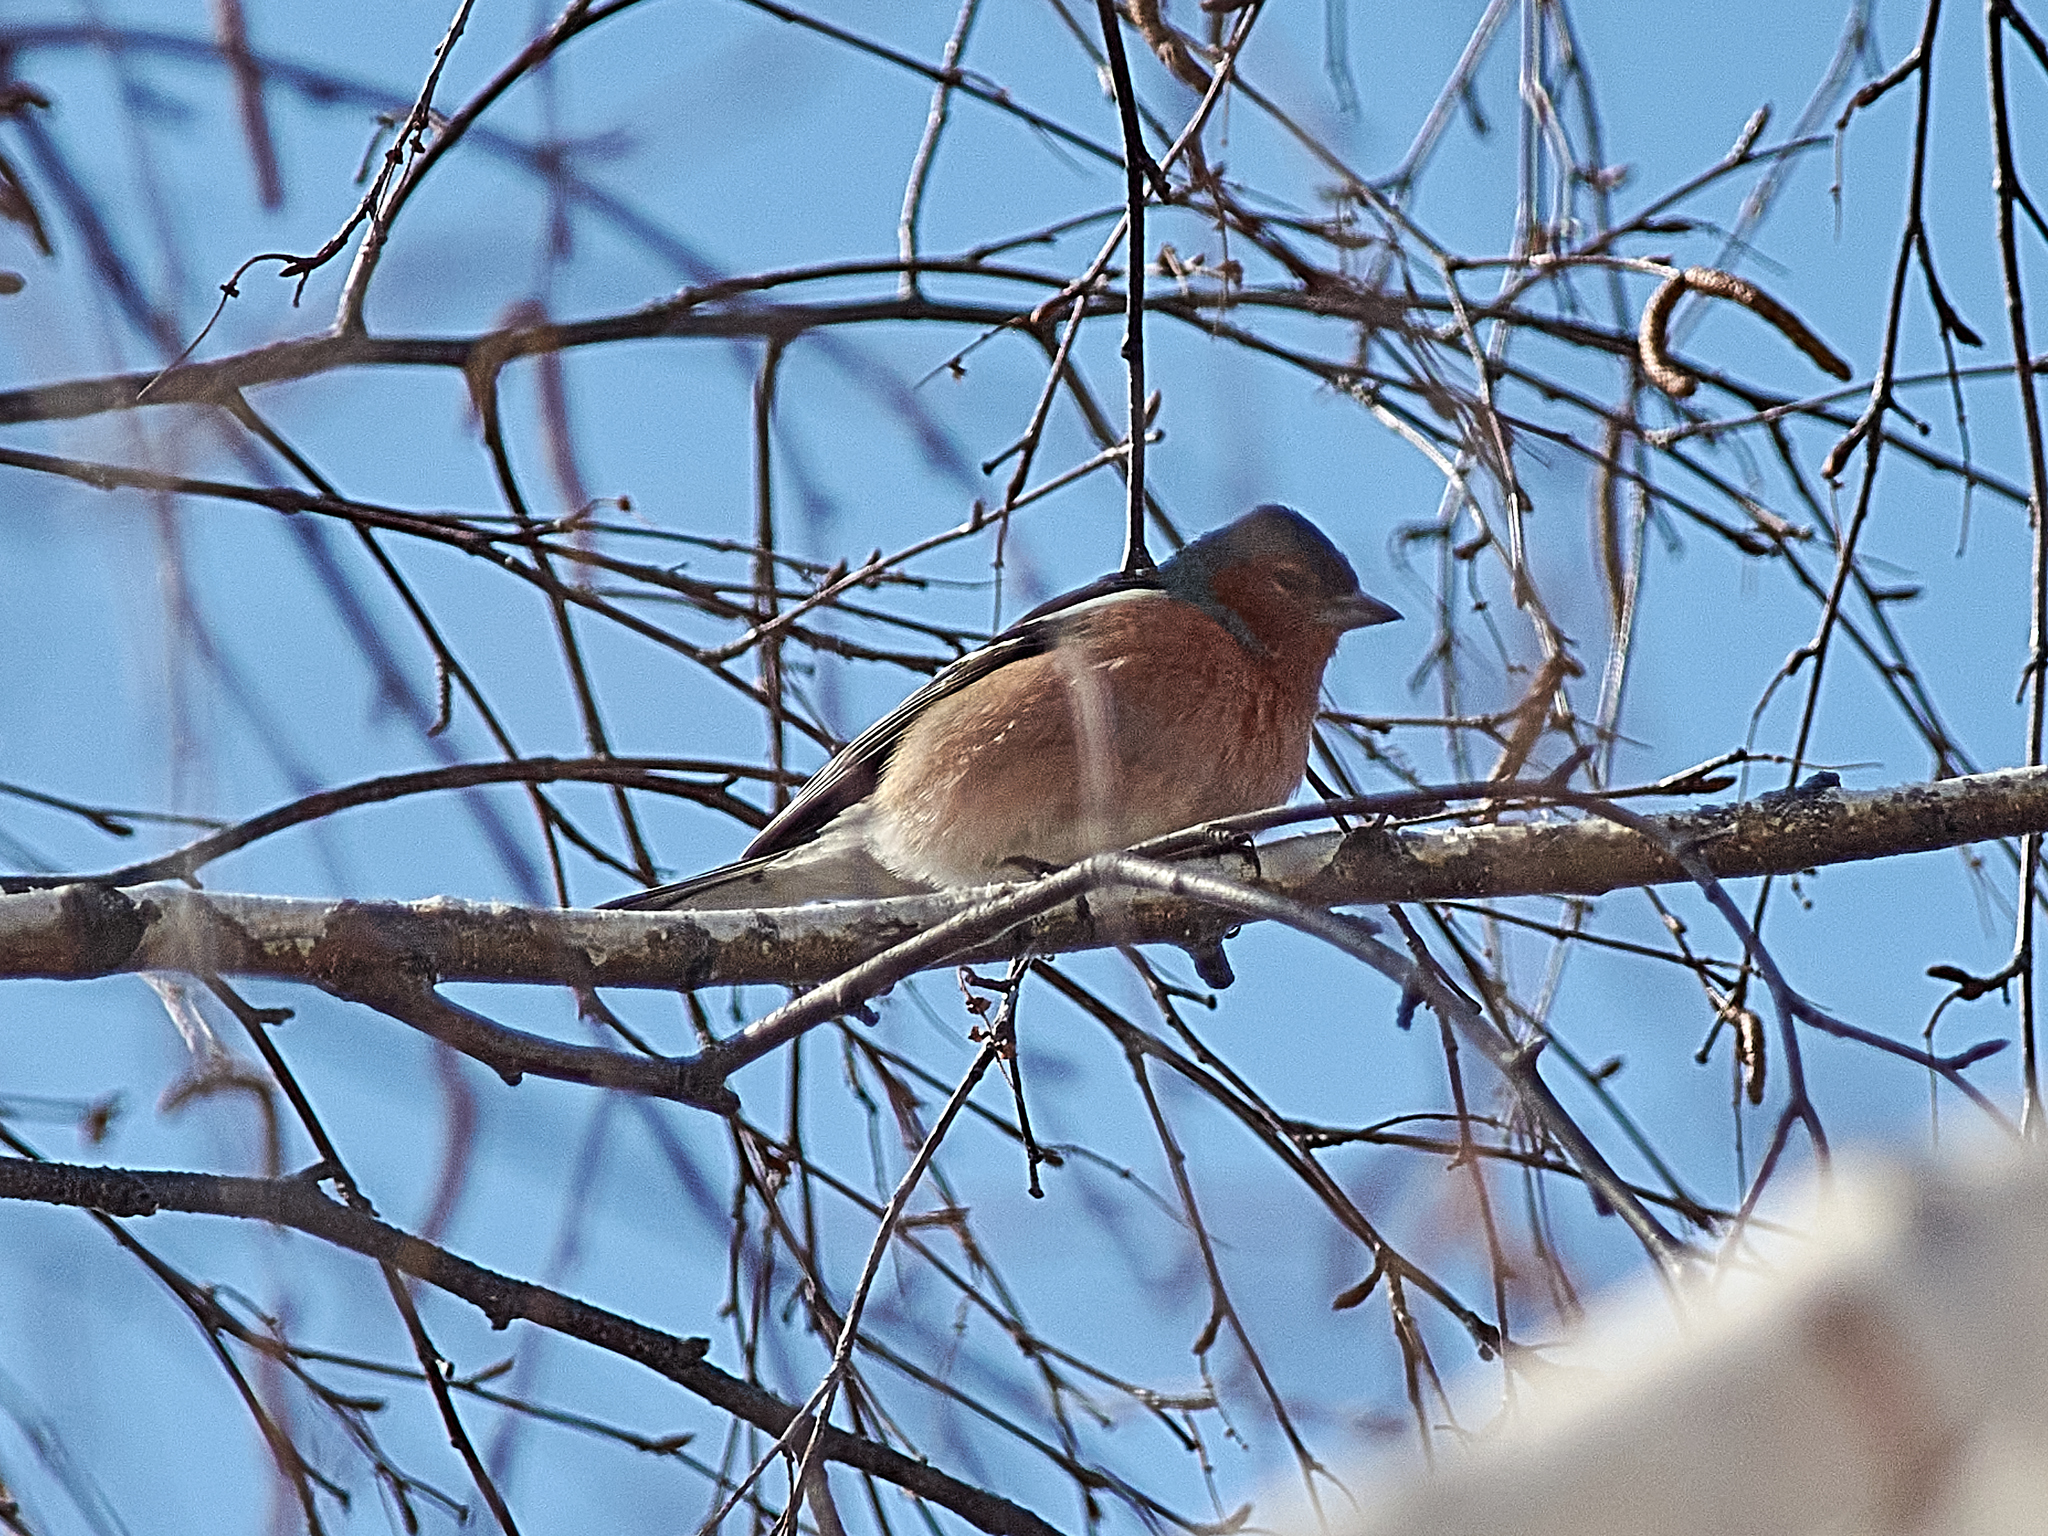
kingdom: Animalia
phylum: Chordata
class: Aves
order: Passeriformes
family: Fringillidae
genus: Fringilla
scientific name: Fringilla coelebs
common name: Common chaffinch
